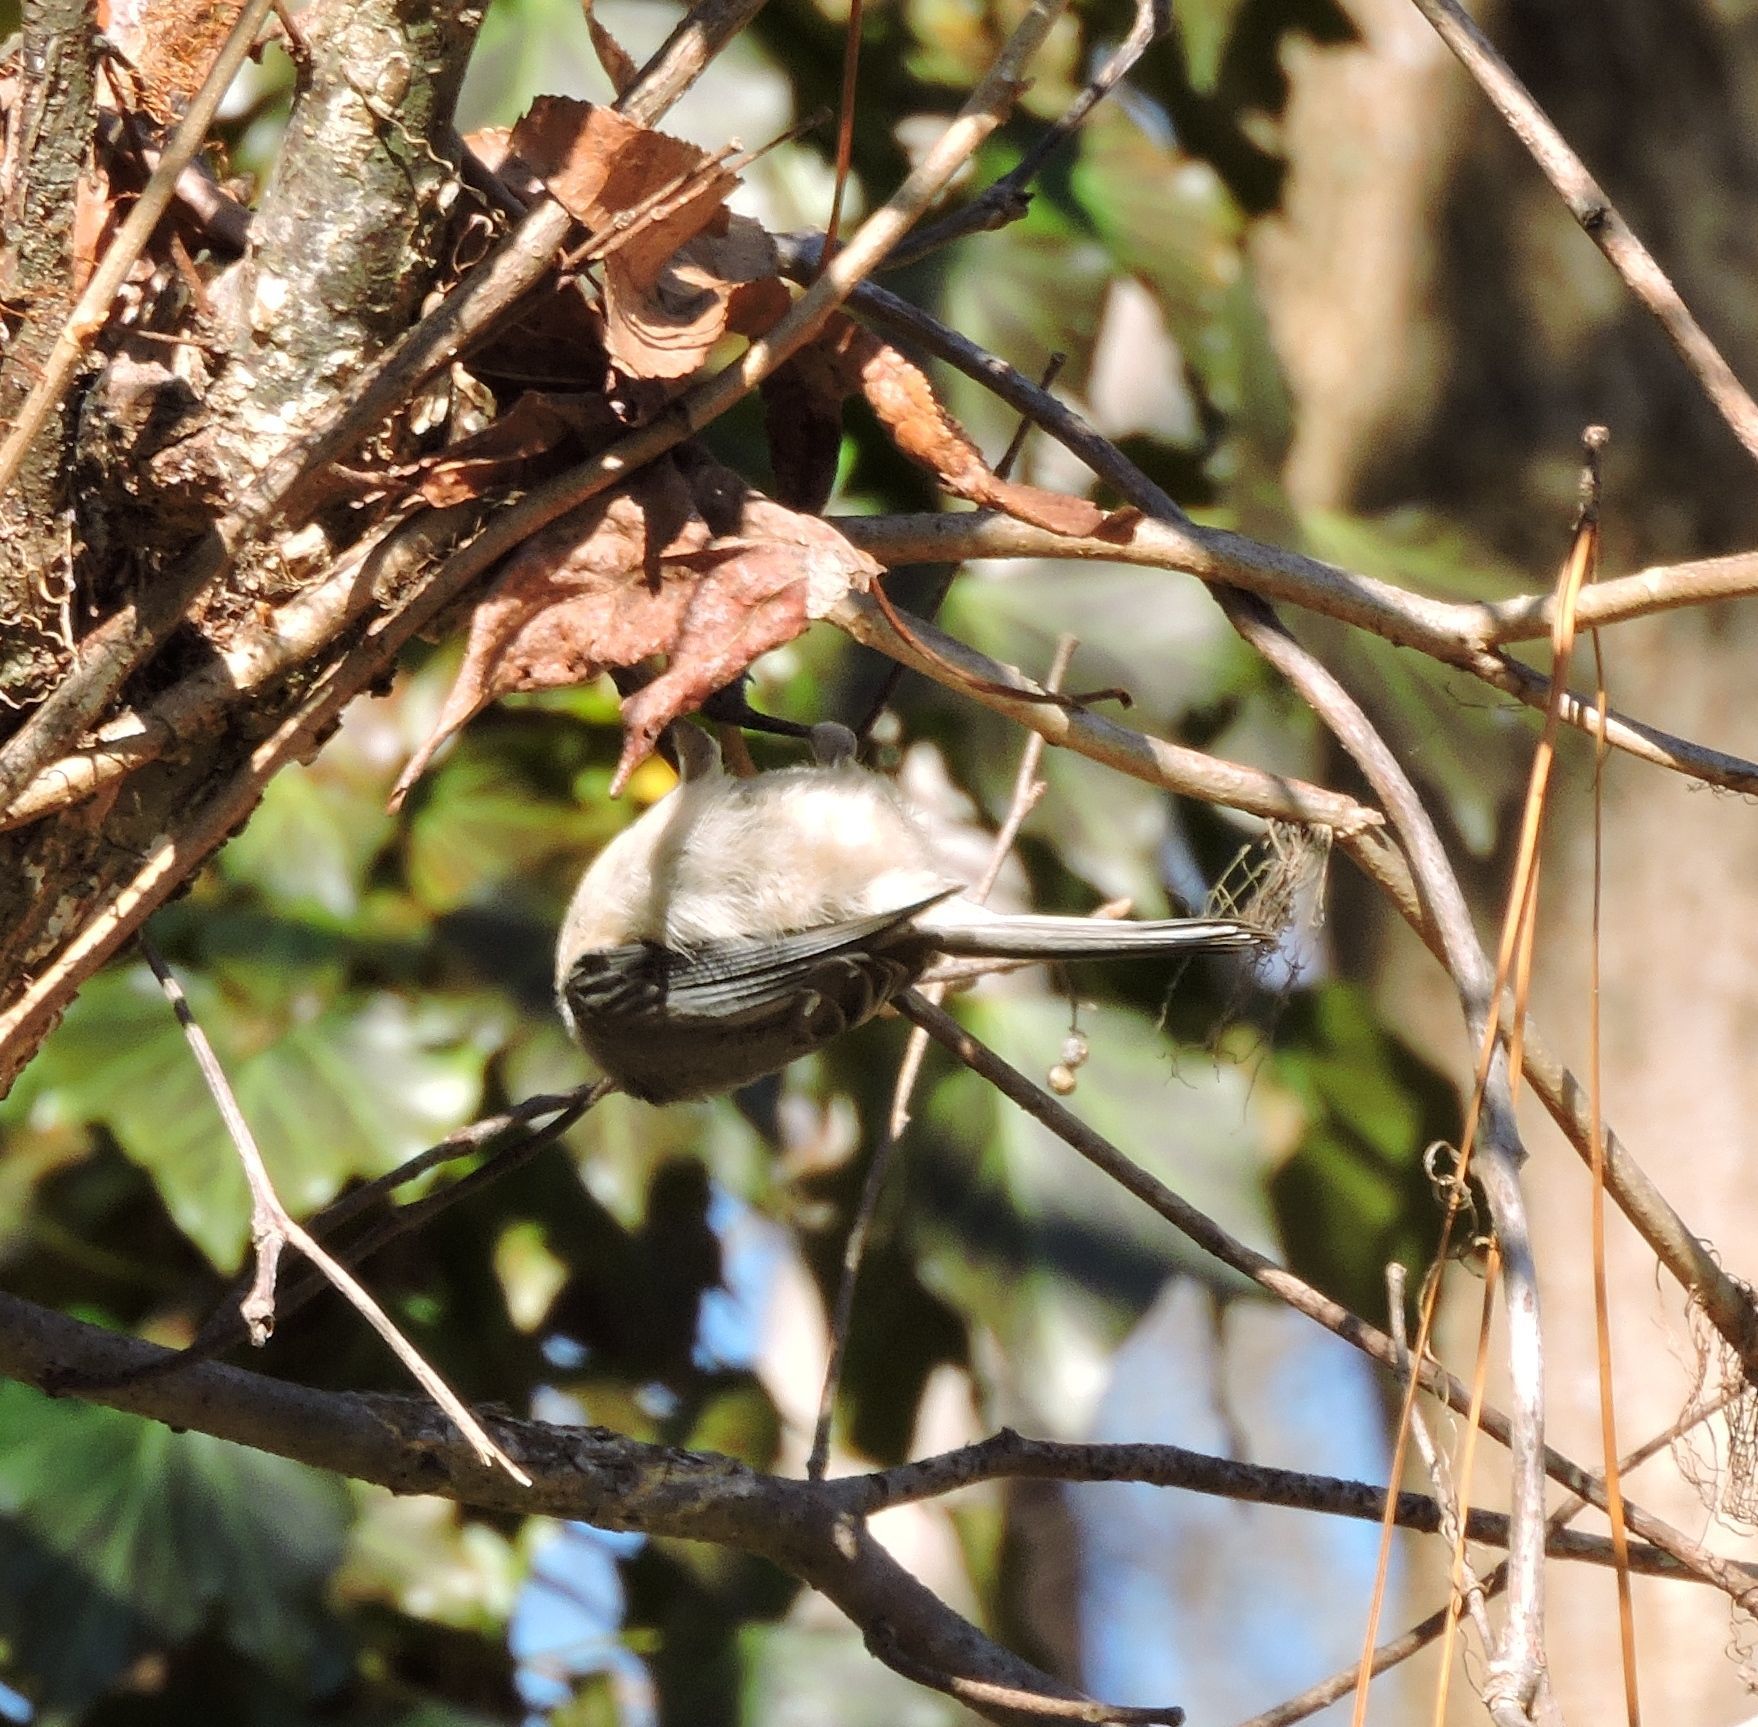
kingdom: Animalia
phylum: Chordata
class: Aves
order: Passeriformes
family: Paridae
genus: Poecile
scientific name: Poecile carolinensis
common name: Carolina chickadee
